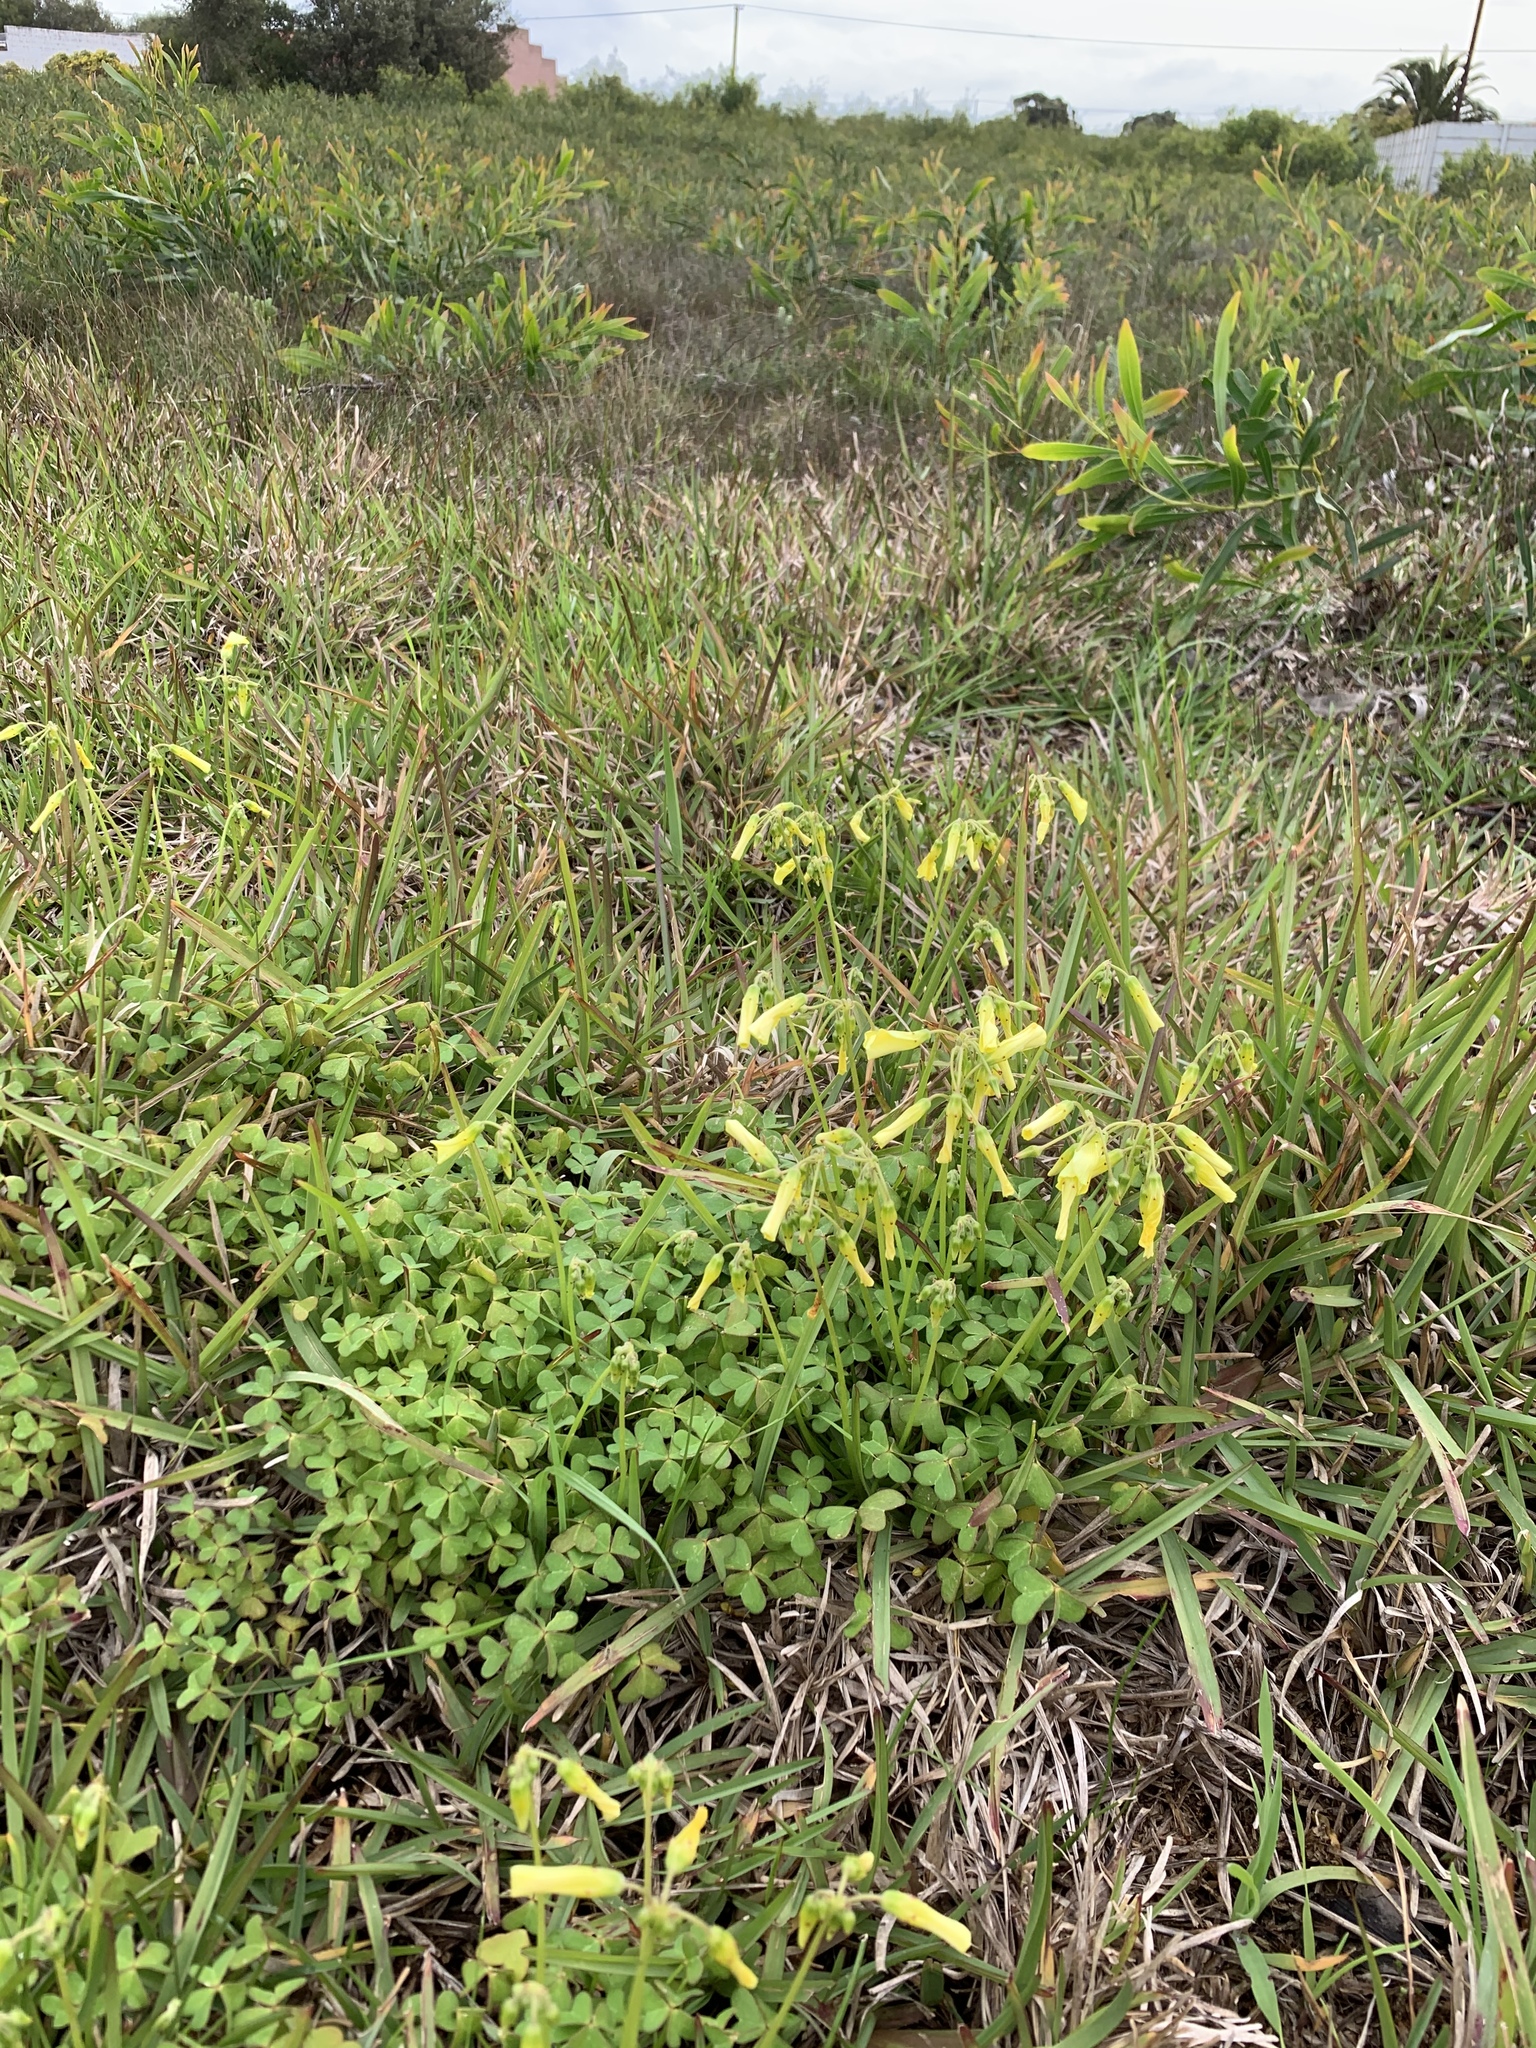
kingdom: Plantae
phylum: Tracheophyta
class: Magnoliopsida
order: Oxalidales
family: Oxalidaceae
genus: Oxalis
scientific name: Oxalis pes-caprae
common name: Bermuda-buttercup
